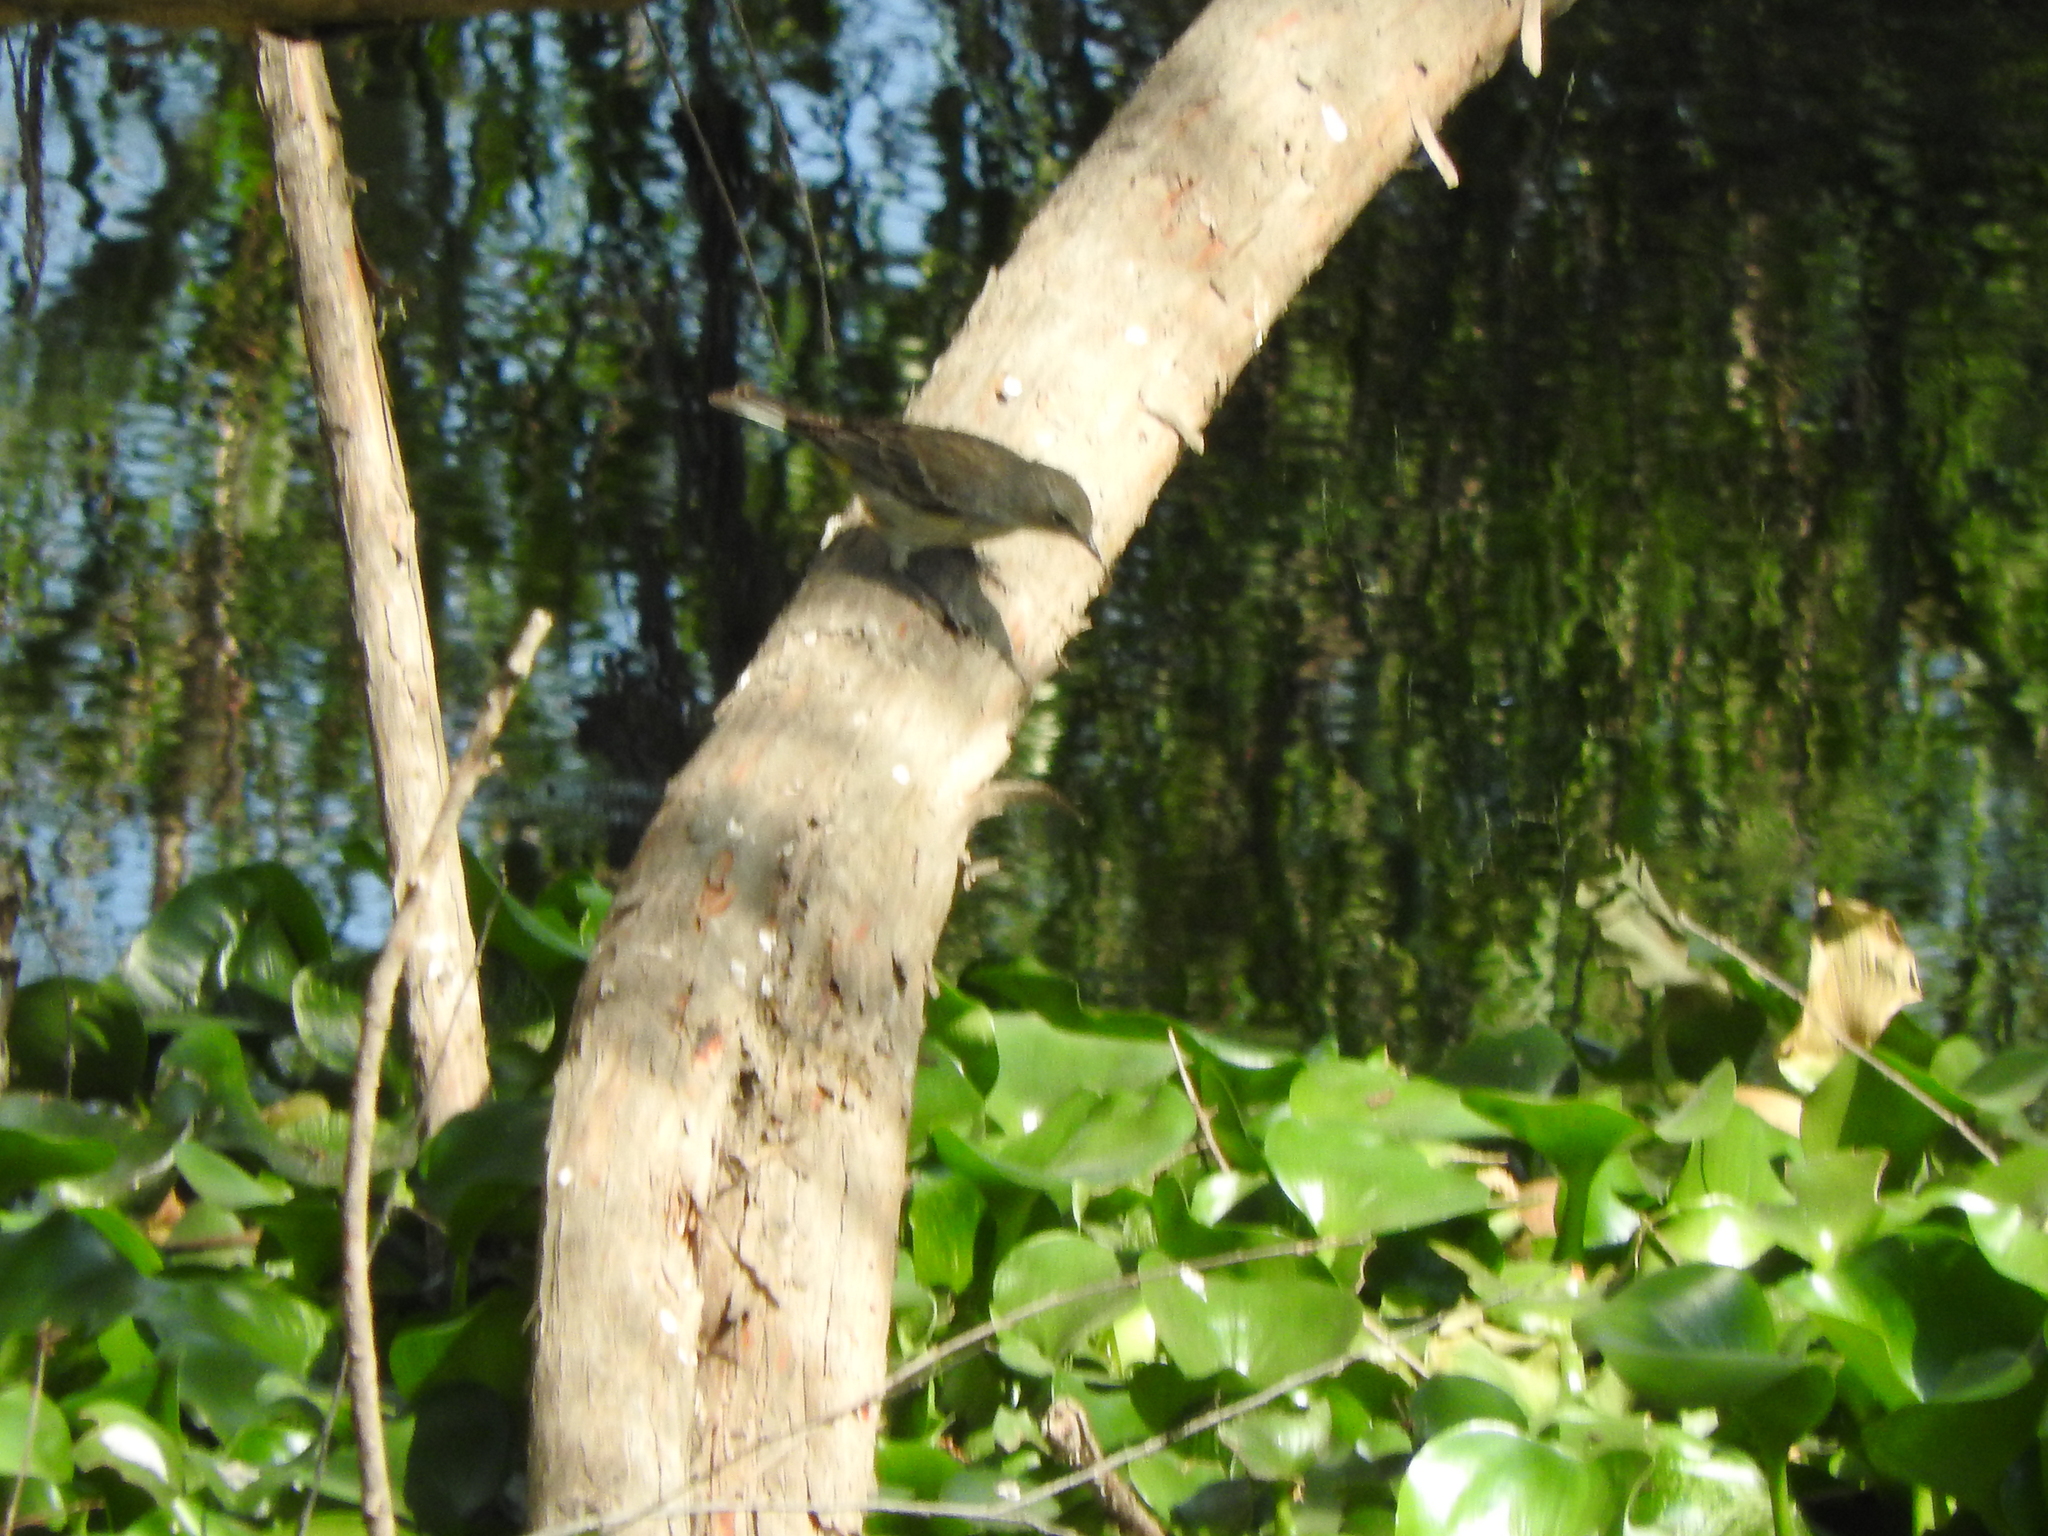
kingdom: Animalia
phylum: Chordata
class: Aves
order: Passeriformes
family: Parulidae
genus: Parkesia
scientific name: Parkesia motacilla
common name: Louisiana waterthrush
